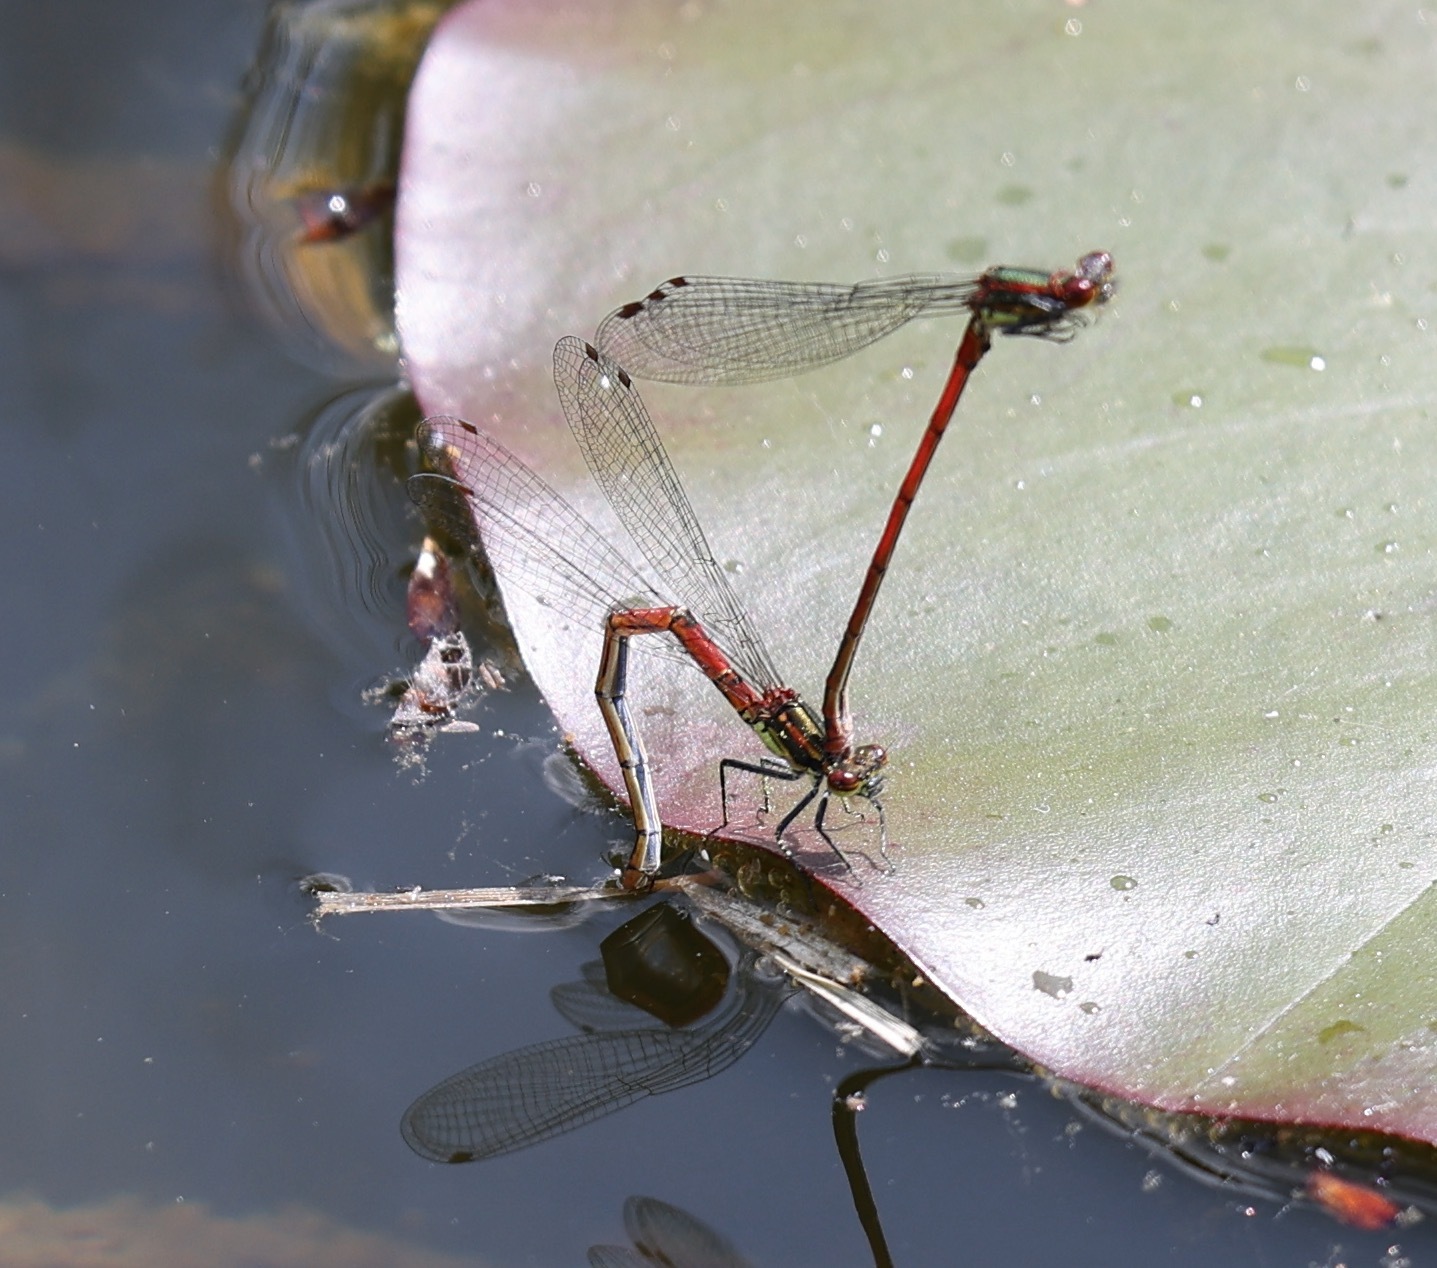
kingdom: Animalia
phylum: Arthropoda
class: Insecta
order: Odonata
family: Coenagrionidae
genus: Pyrrhosoma
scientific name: Pyrrhosoma nymphula
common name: Large red damsel
